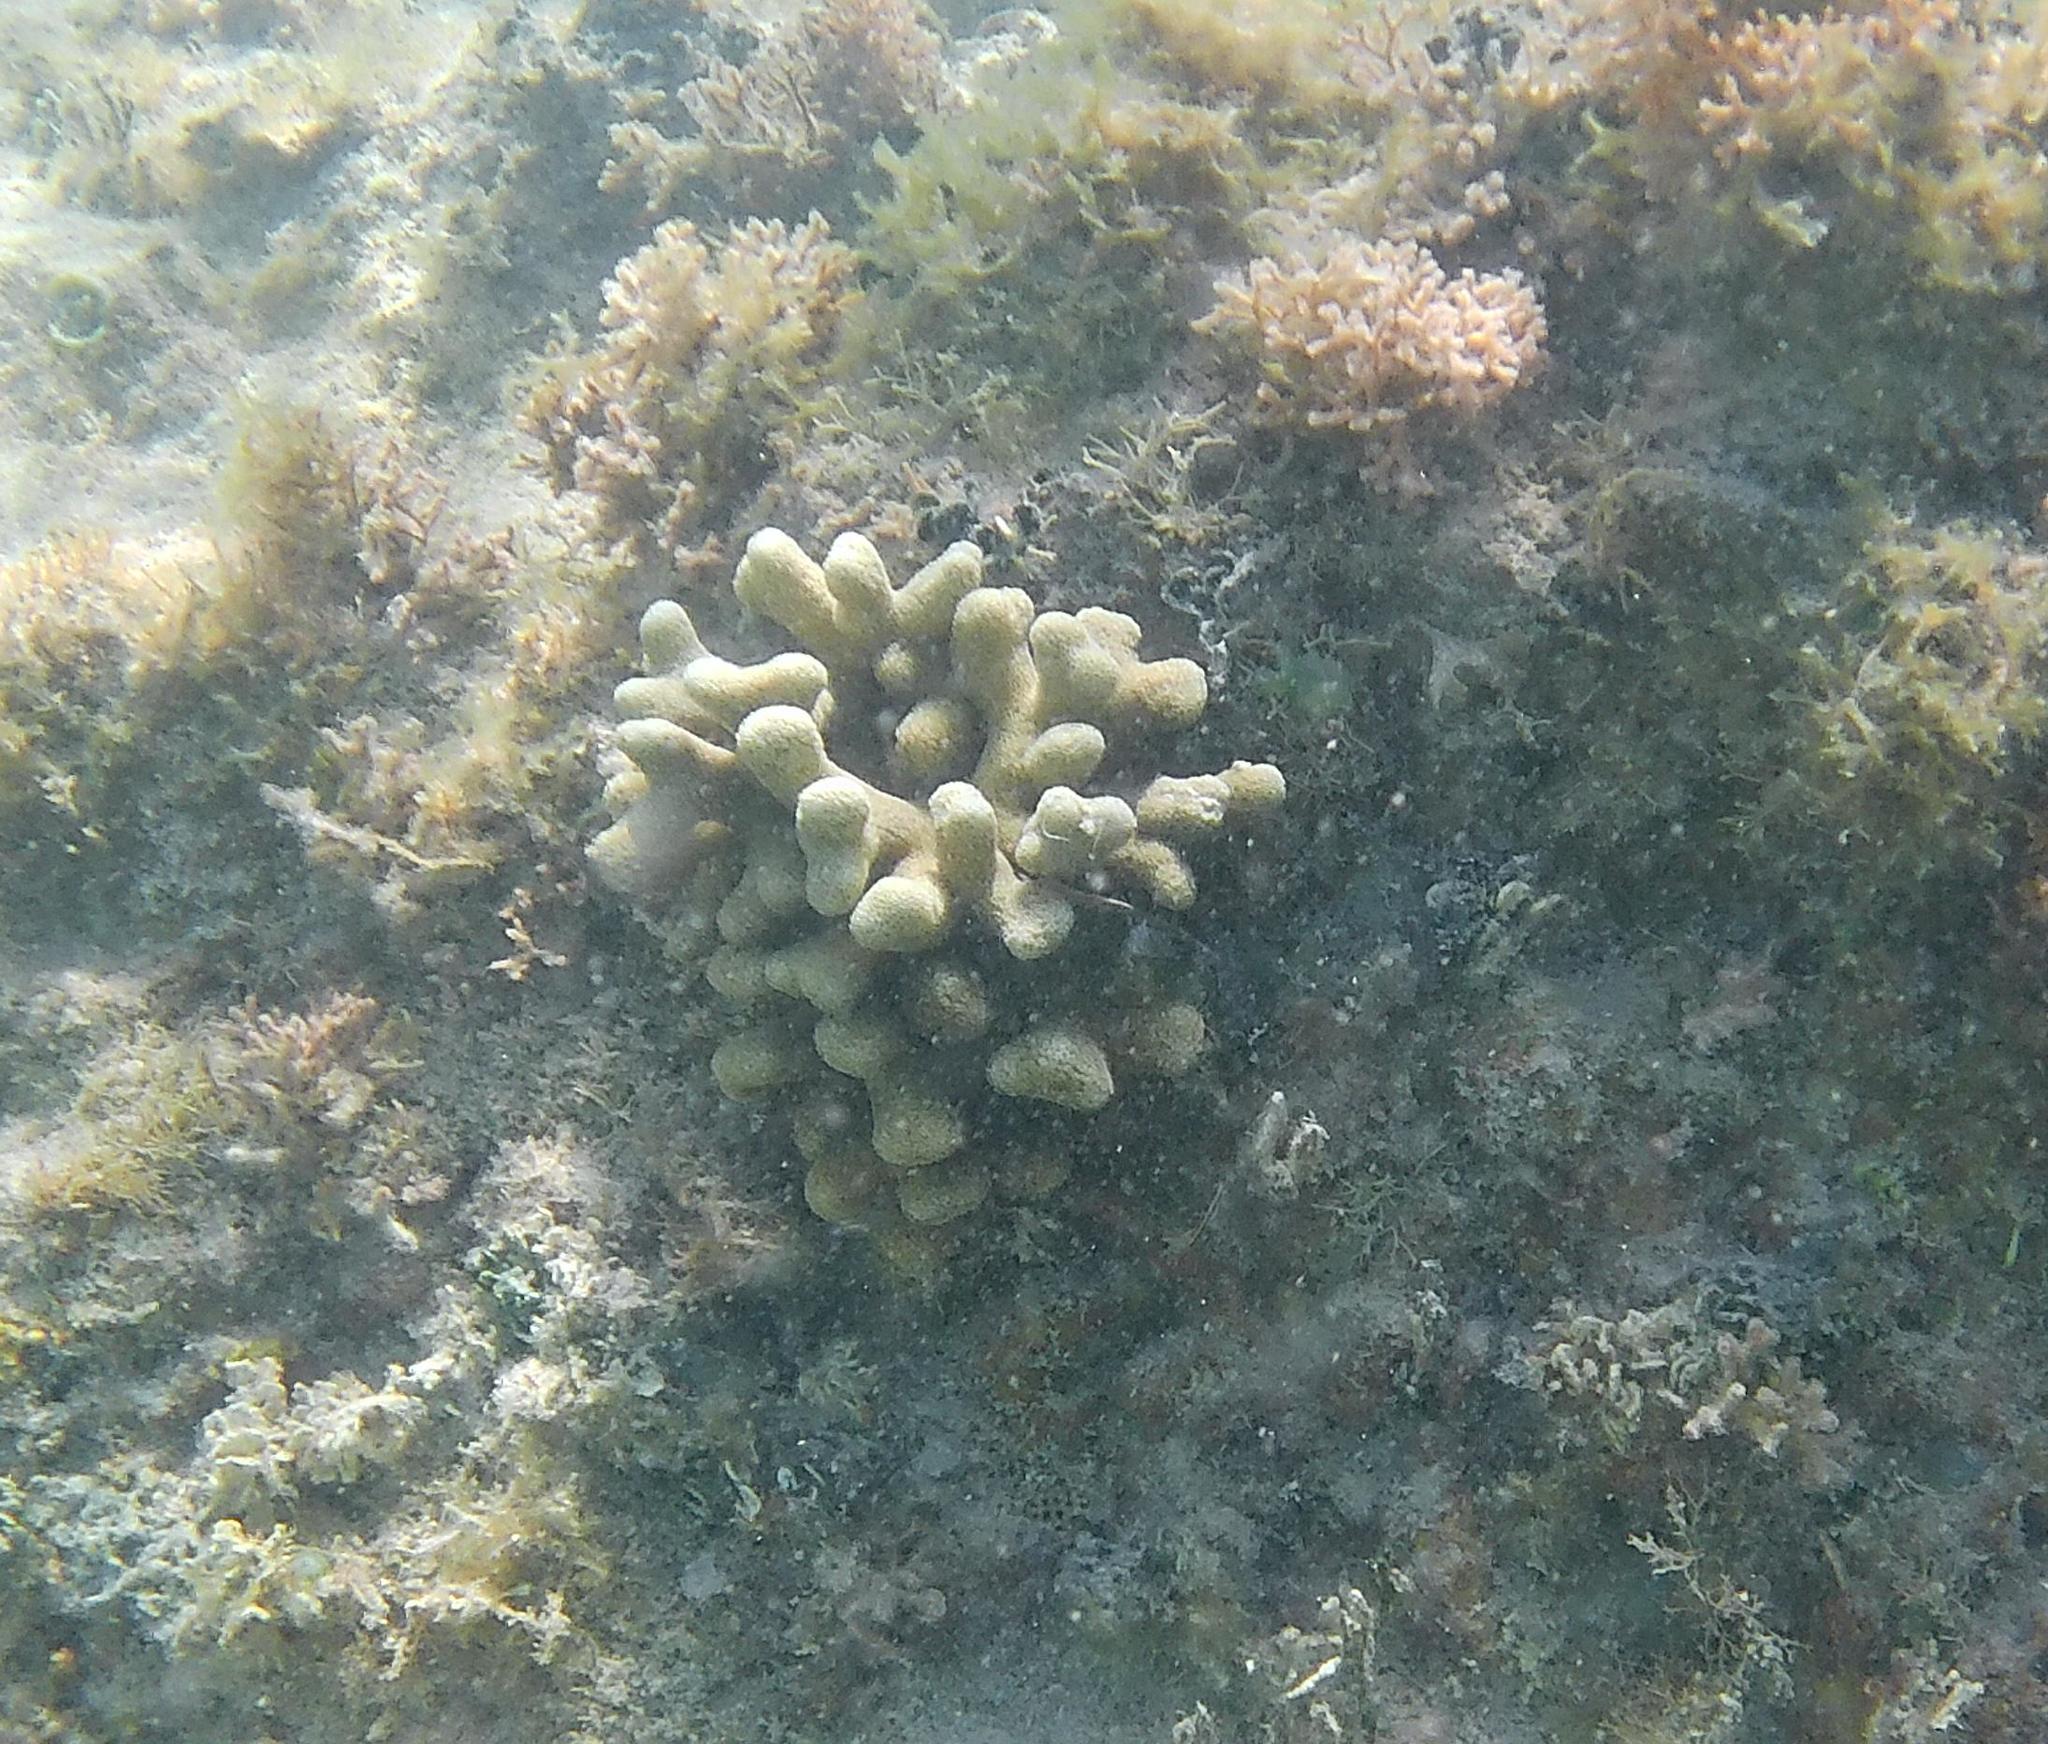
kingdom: Animalia
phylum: Cnidaria
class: Anthozoa
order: Scleractinia
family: Poritidae
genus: Porites
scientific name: Porites porites
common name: Finger coral
